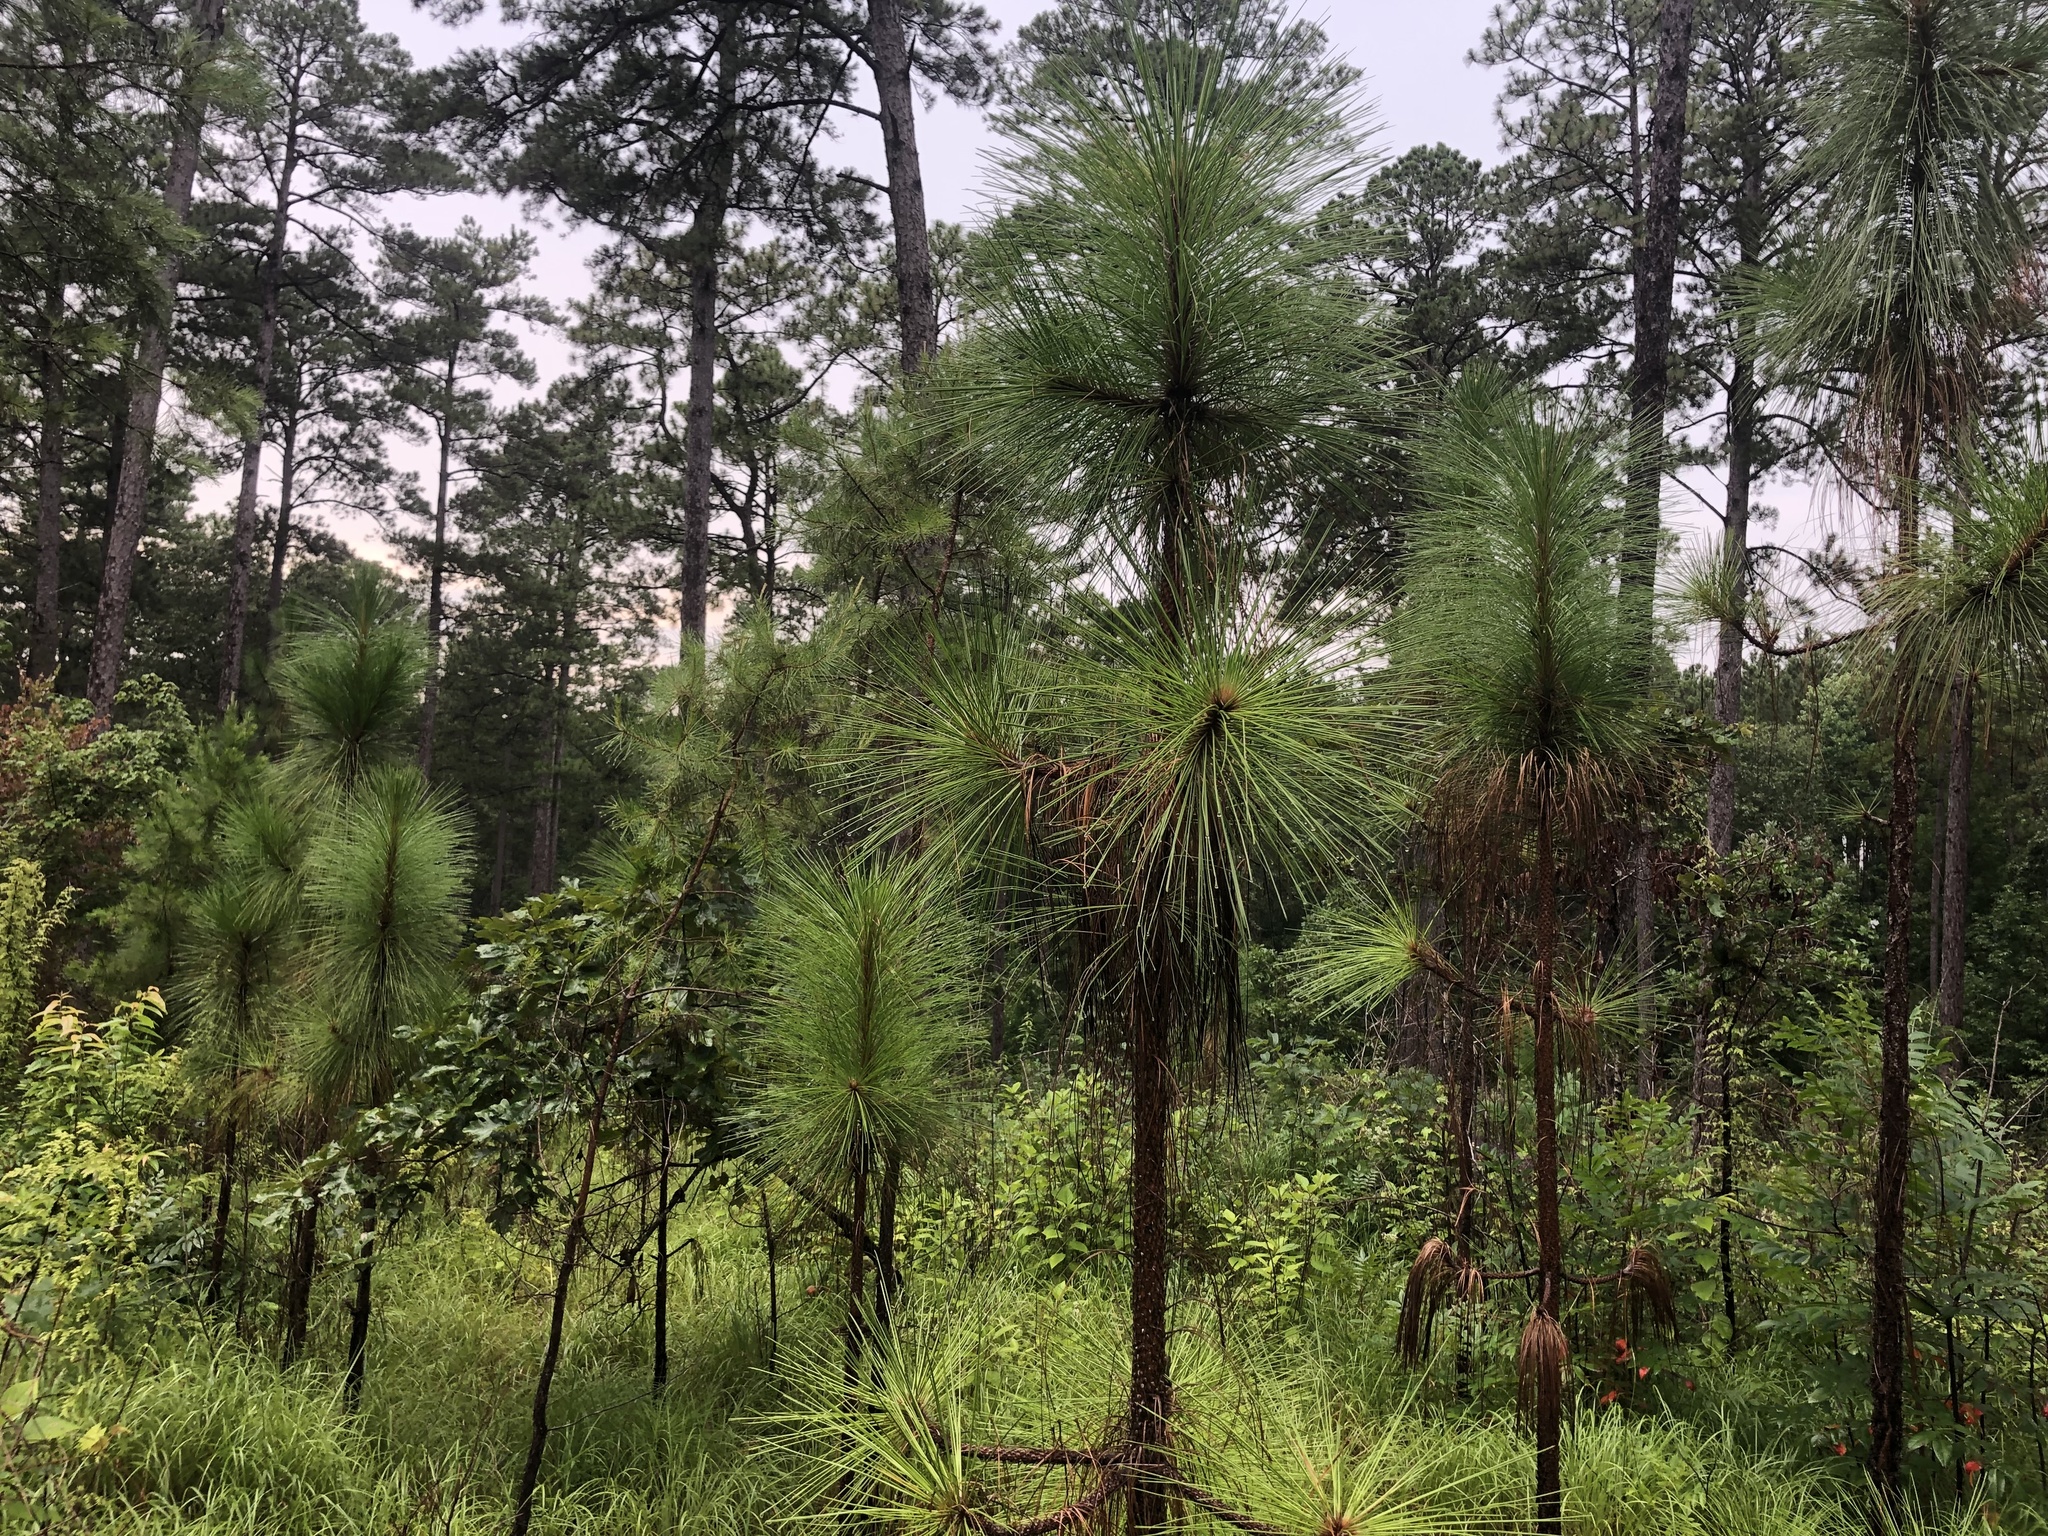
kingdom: Plantae
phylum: Tracheophyta
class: Pinopsida
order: Pinales
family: Pinaceae
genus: Pinus
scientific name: Pinus palustris
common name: Longleaf pine
